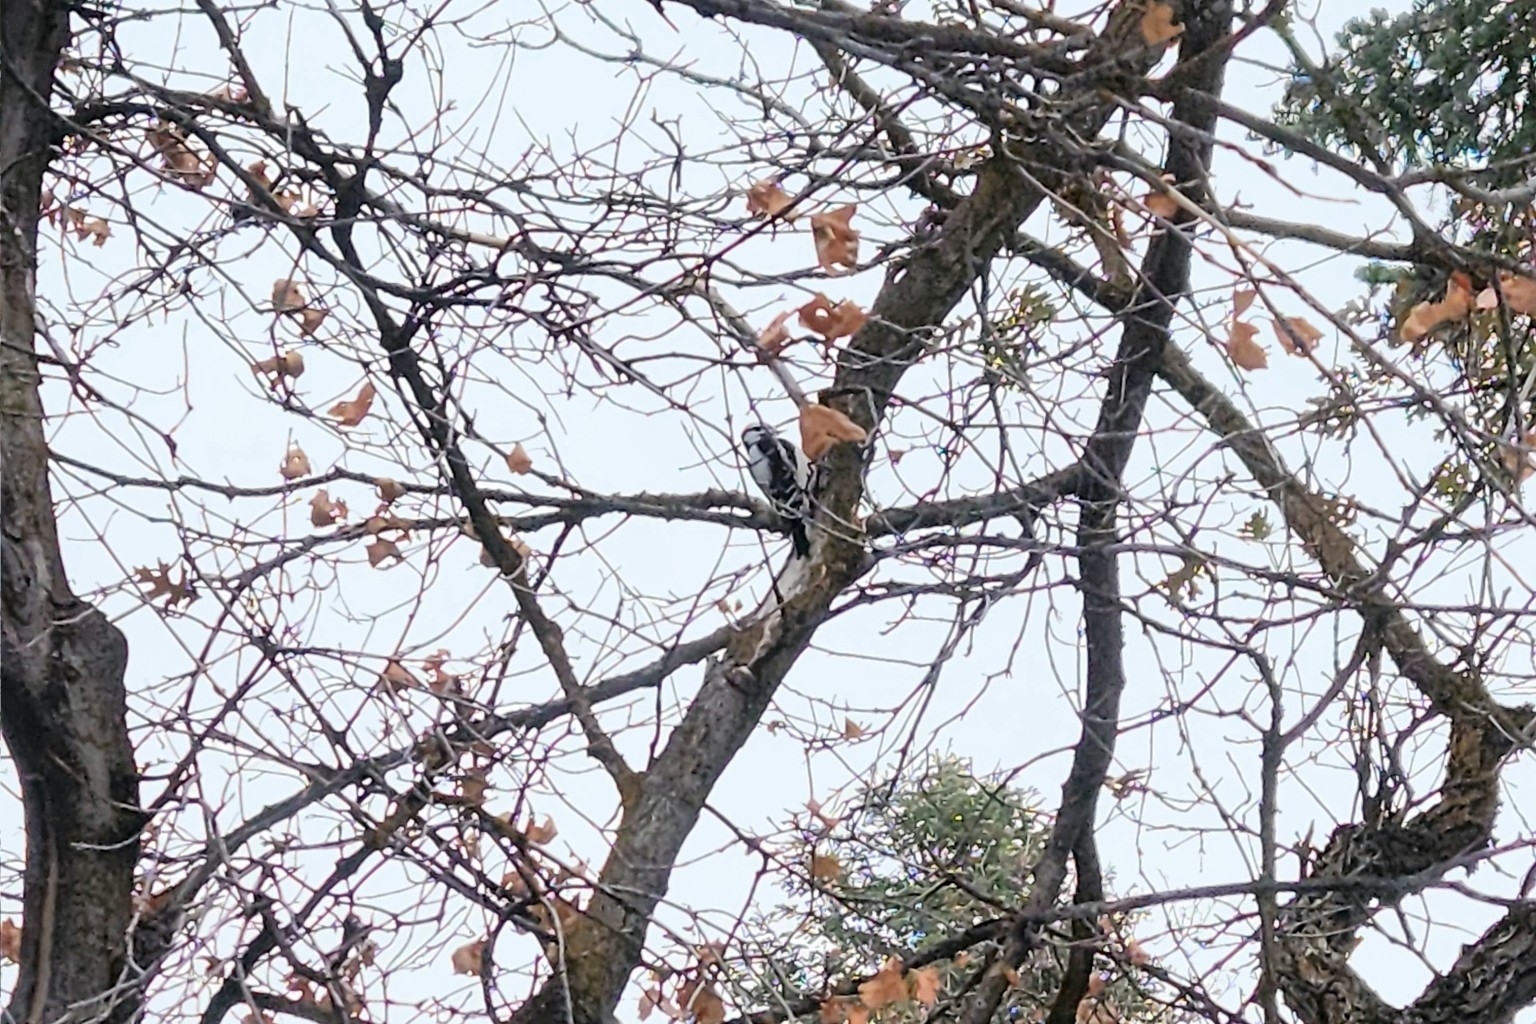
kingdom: Animalia
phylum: Chordata
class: Aves
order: Piciformes
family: Picidae
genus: Dryobates
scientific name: Dryobates pubescens
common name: Downy woodpecker
